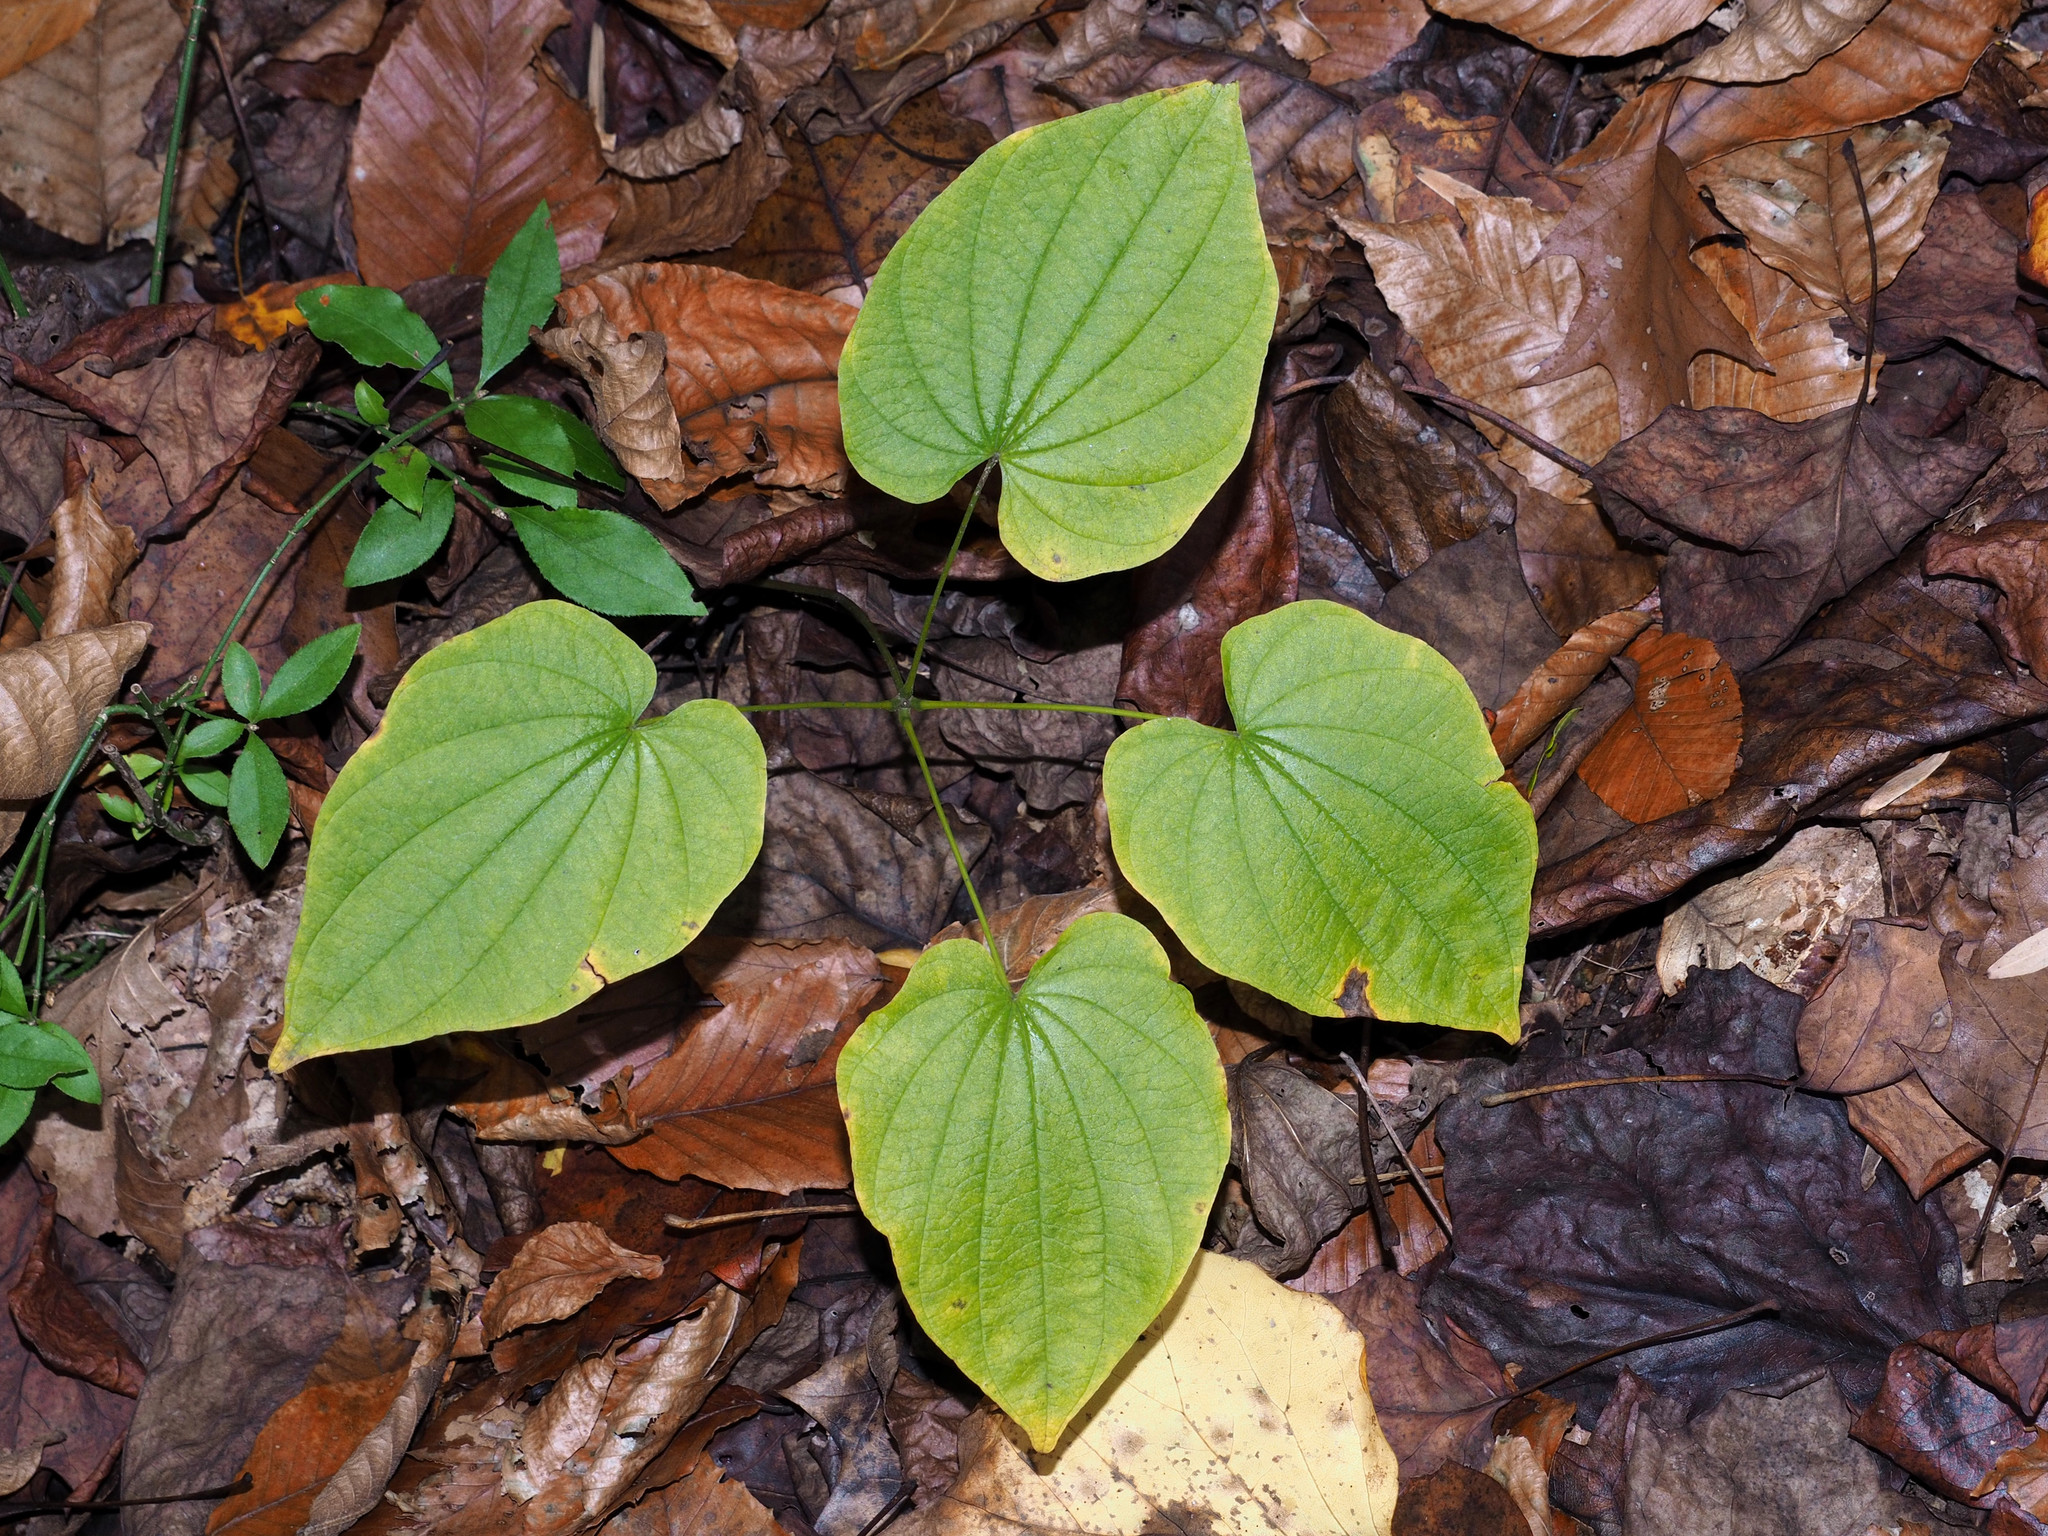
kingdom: Plantae
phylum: Tracheophyta
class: Liliopsida
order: Dioscoreales
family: Dioscoreaceae
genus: Dioscorea
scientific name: Dioscorea villosa
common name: Wild yam
